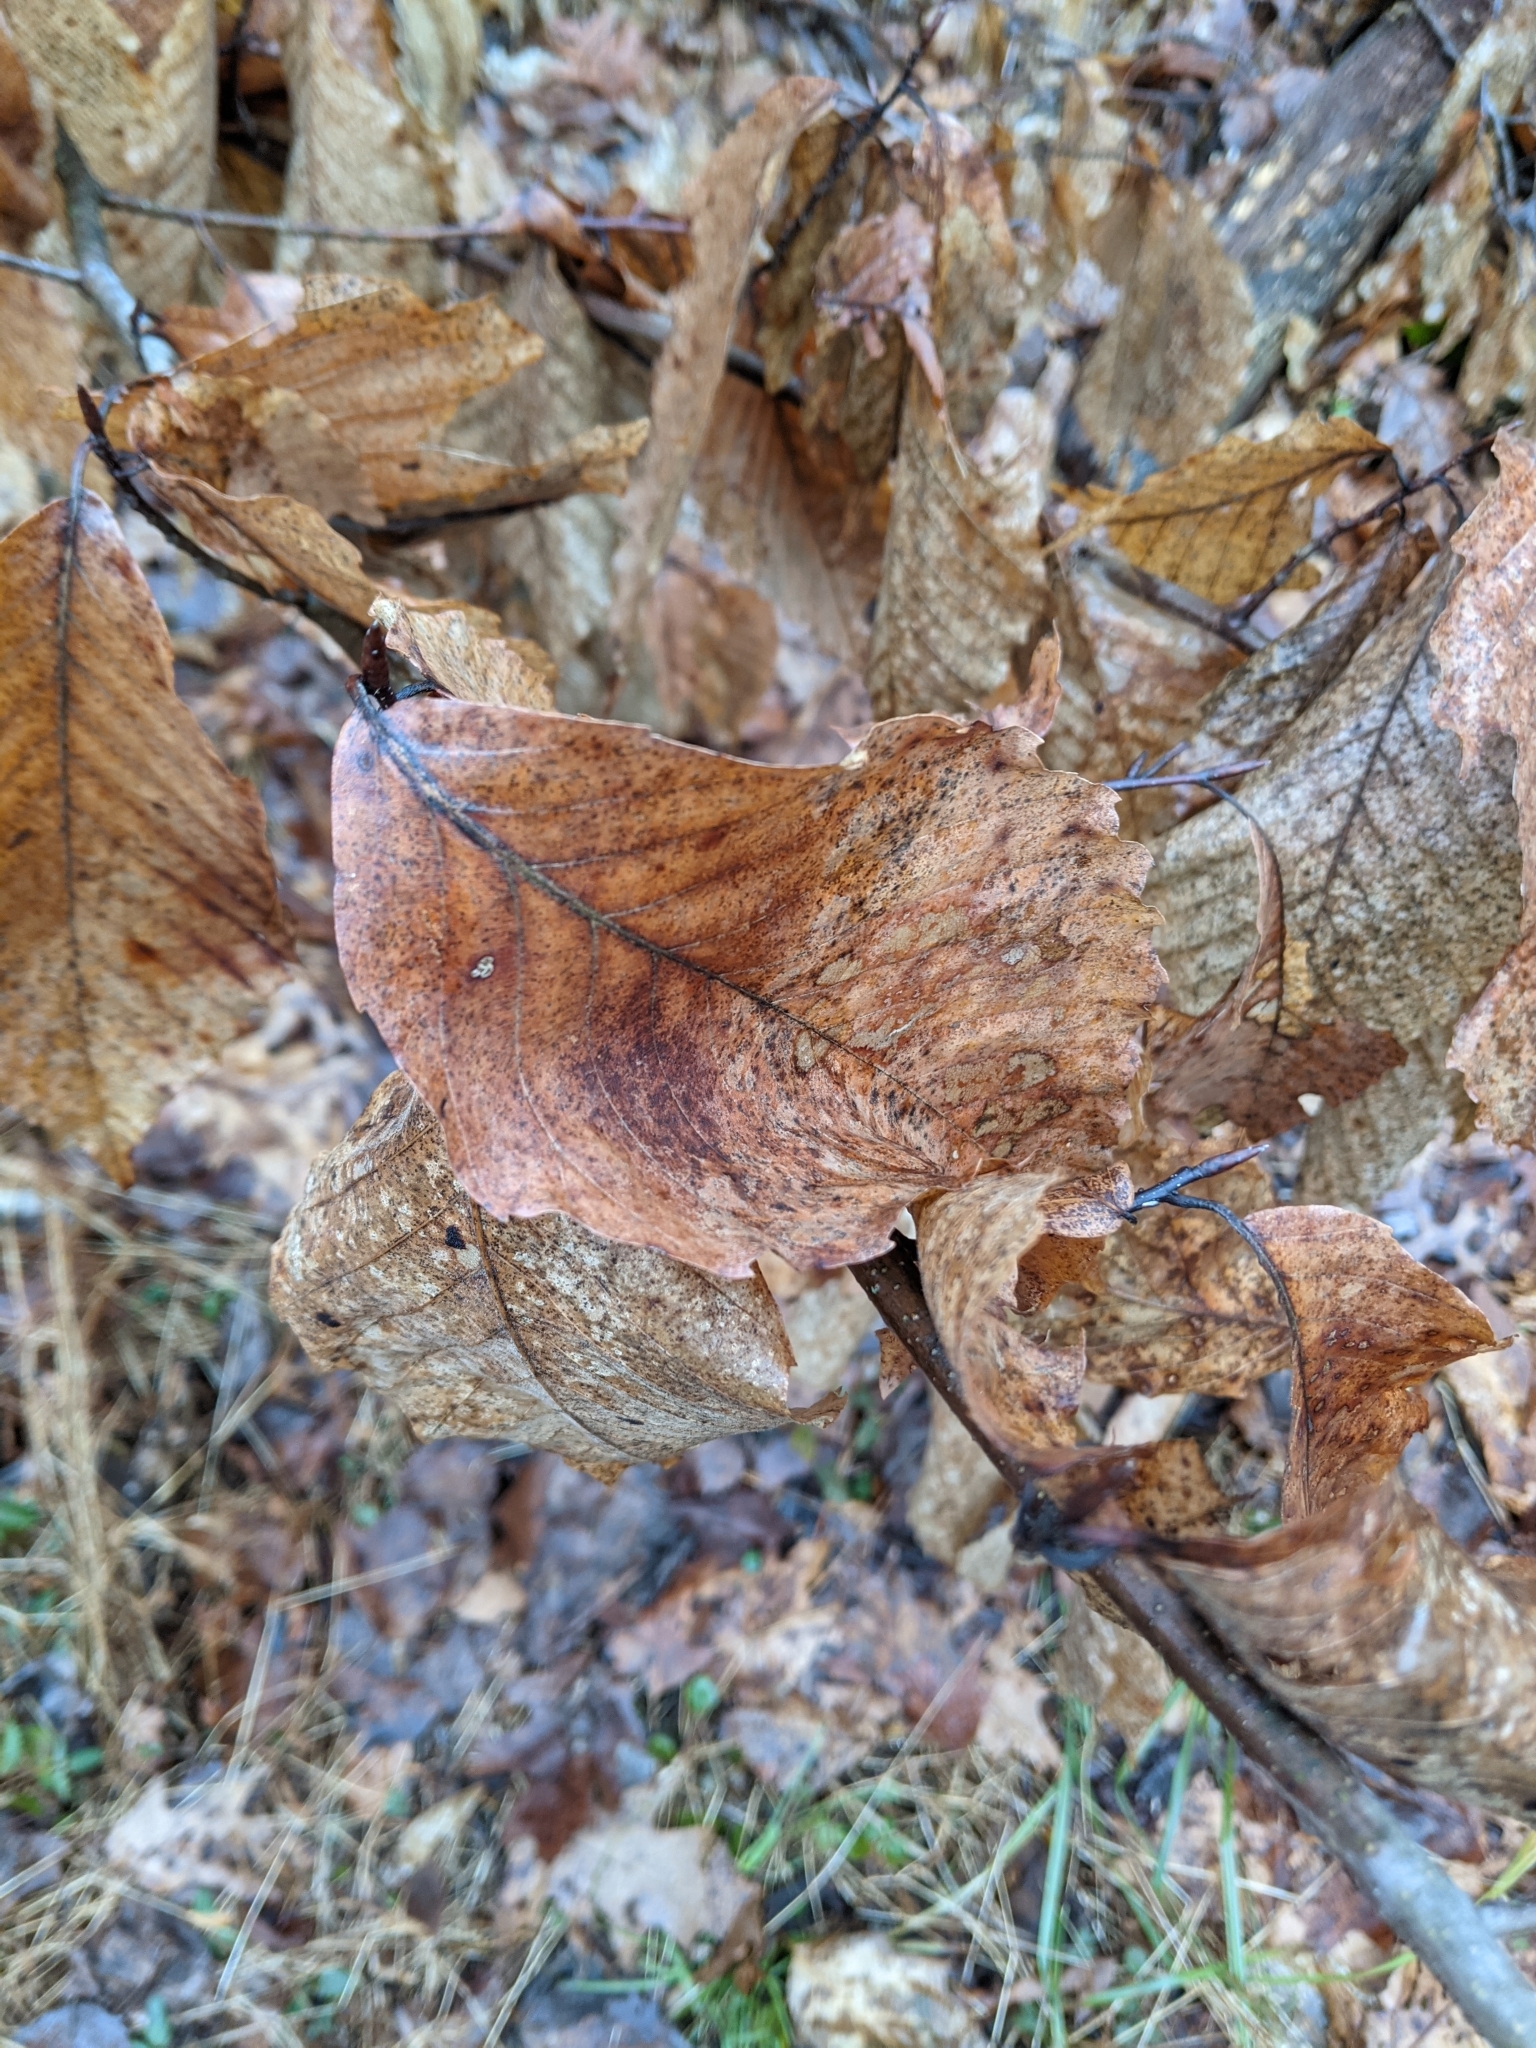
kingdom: Plantae
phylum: Tracheophyta
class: Magnoliopsida
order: Fagales
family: Fagaceae
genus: Fagus
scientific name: Fagus grandifolia
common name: American beech
